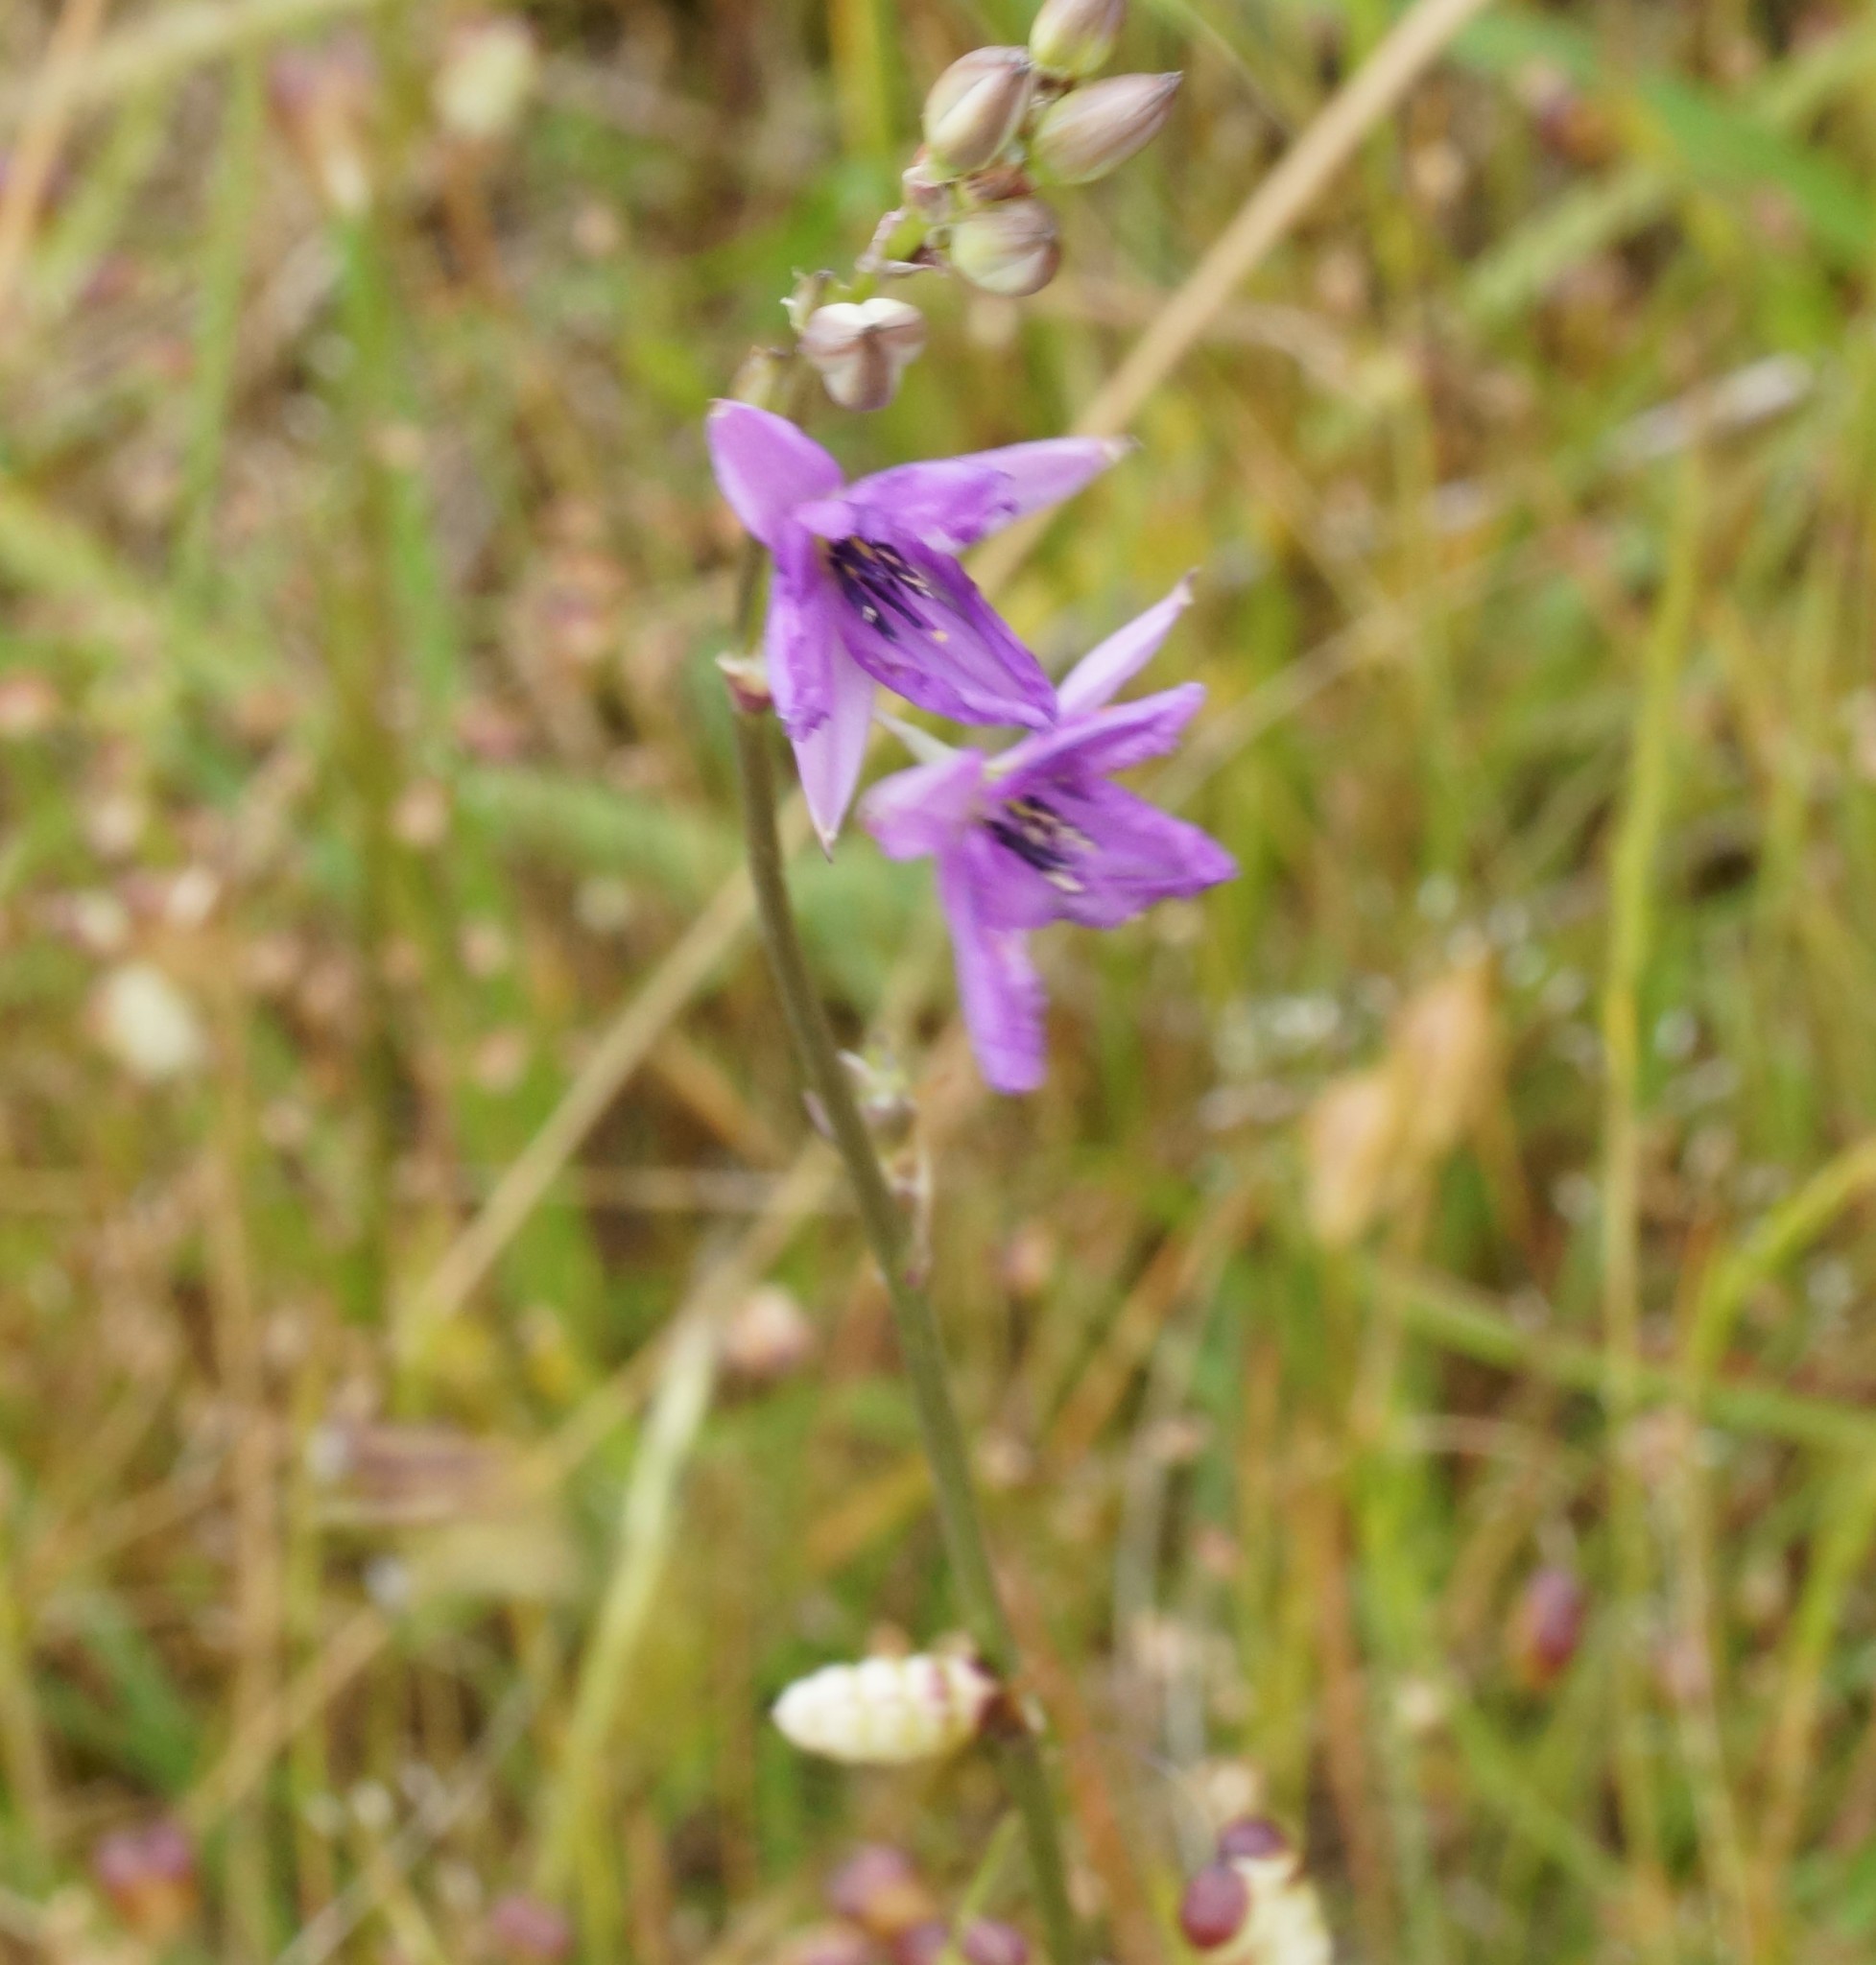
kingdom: Plantae
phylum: Tracheophyta
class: Liliopsida
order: Asparagales
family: Asparagaceae
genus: Arthropodium
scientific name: Arthropodium strictum
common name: Chocolate-lily
